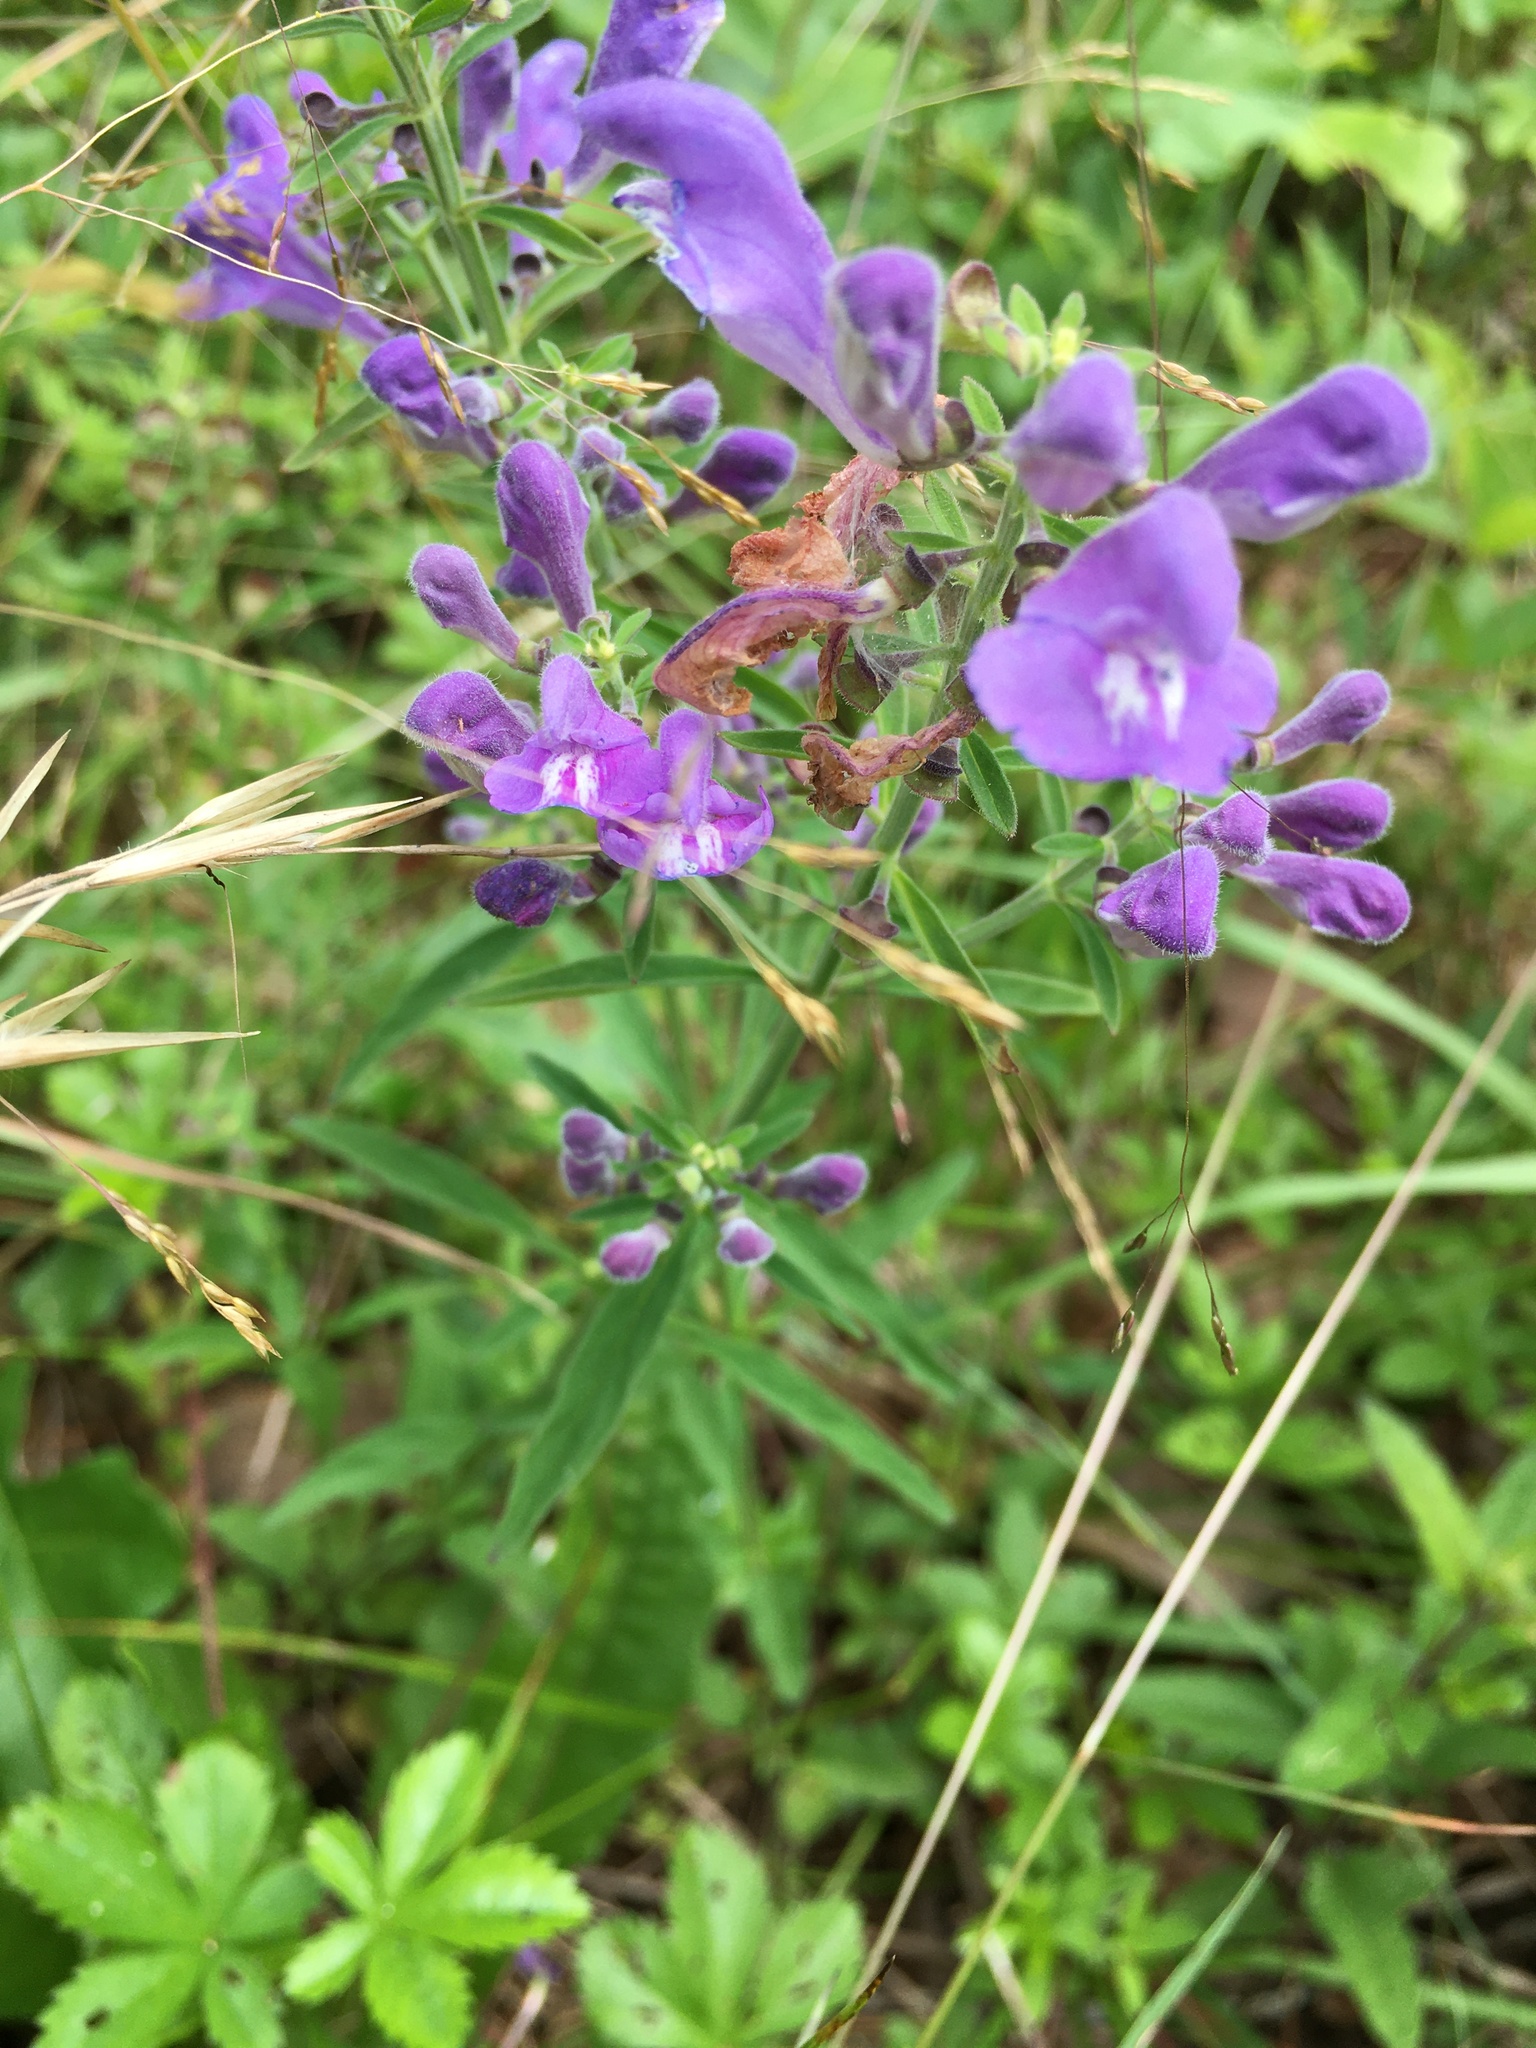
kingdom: Plantae
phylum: Tracheophyta
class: Magnoliopsida
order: Lamiales
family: Lamiaceae
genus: Scutellaria
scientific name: Scutellaria integrifolia
